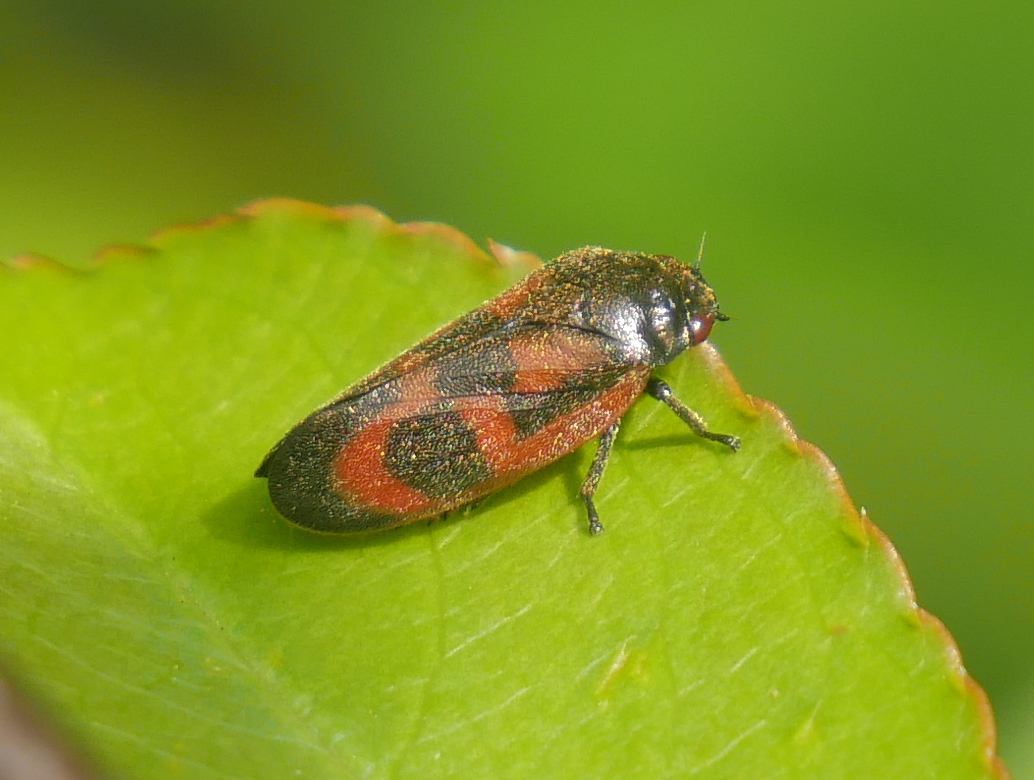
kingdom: Animalia
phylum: Arthropoda
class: Insecta
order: Hemiptera
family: Cercopidae
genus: Haematoloma
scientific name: Haematoloma dorsata
